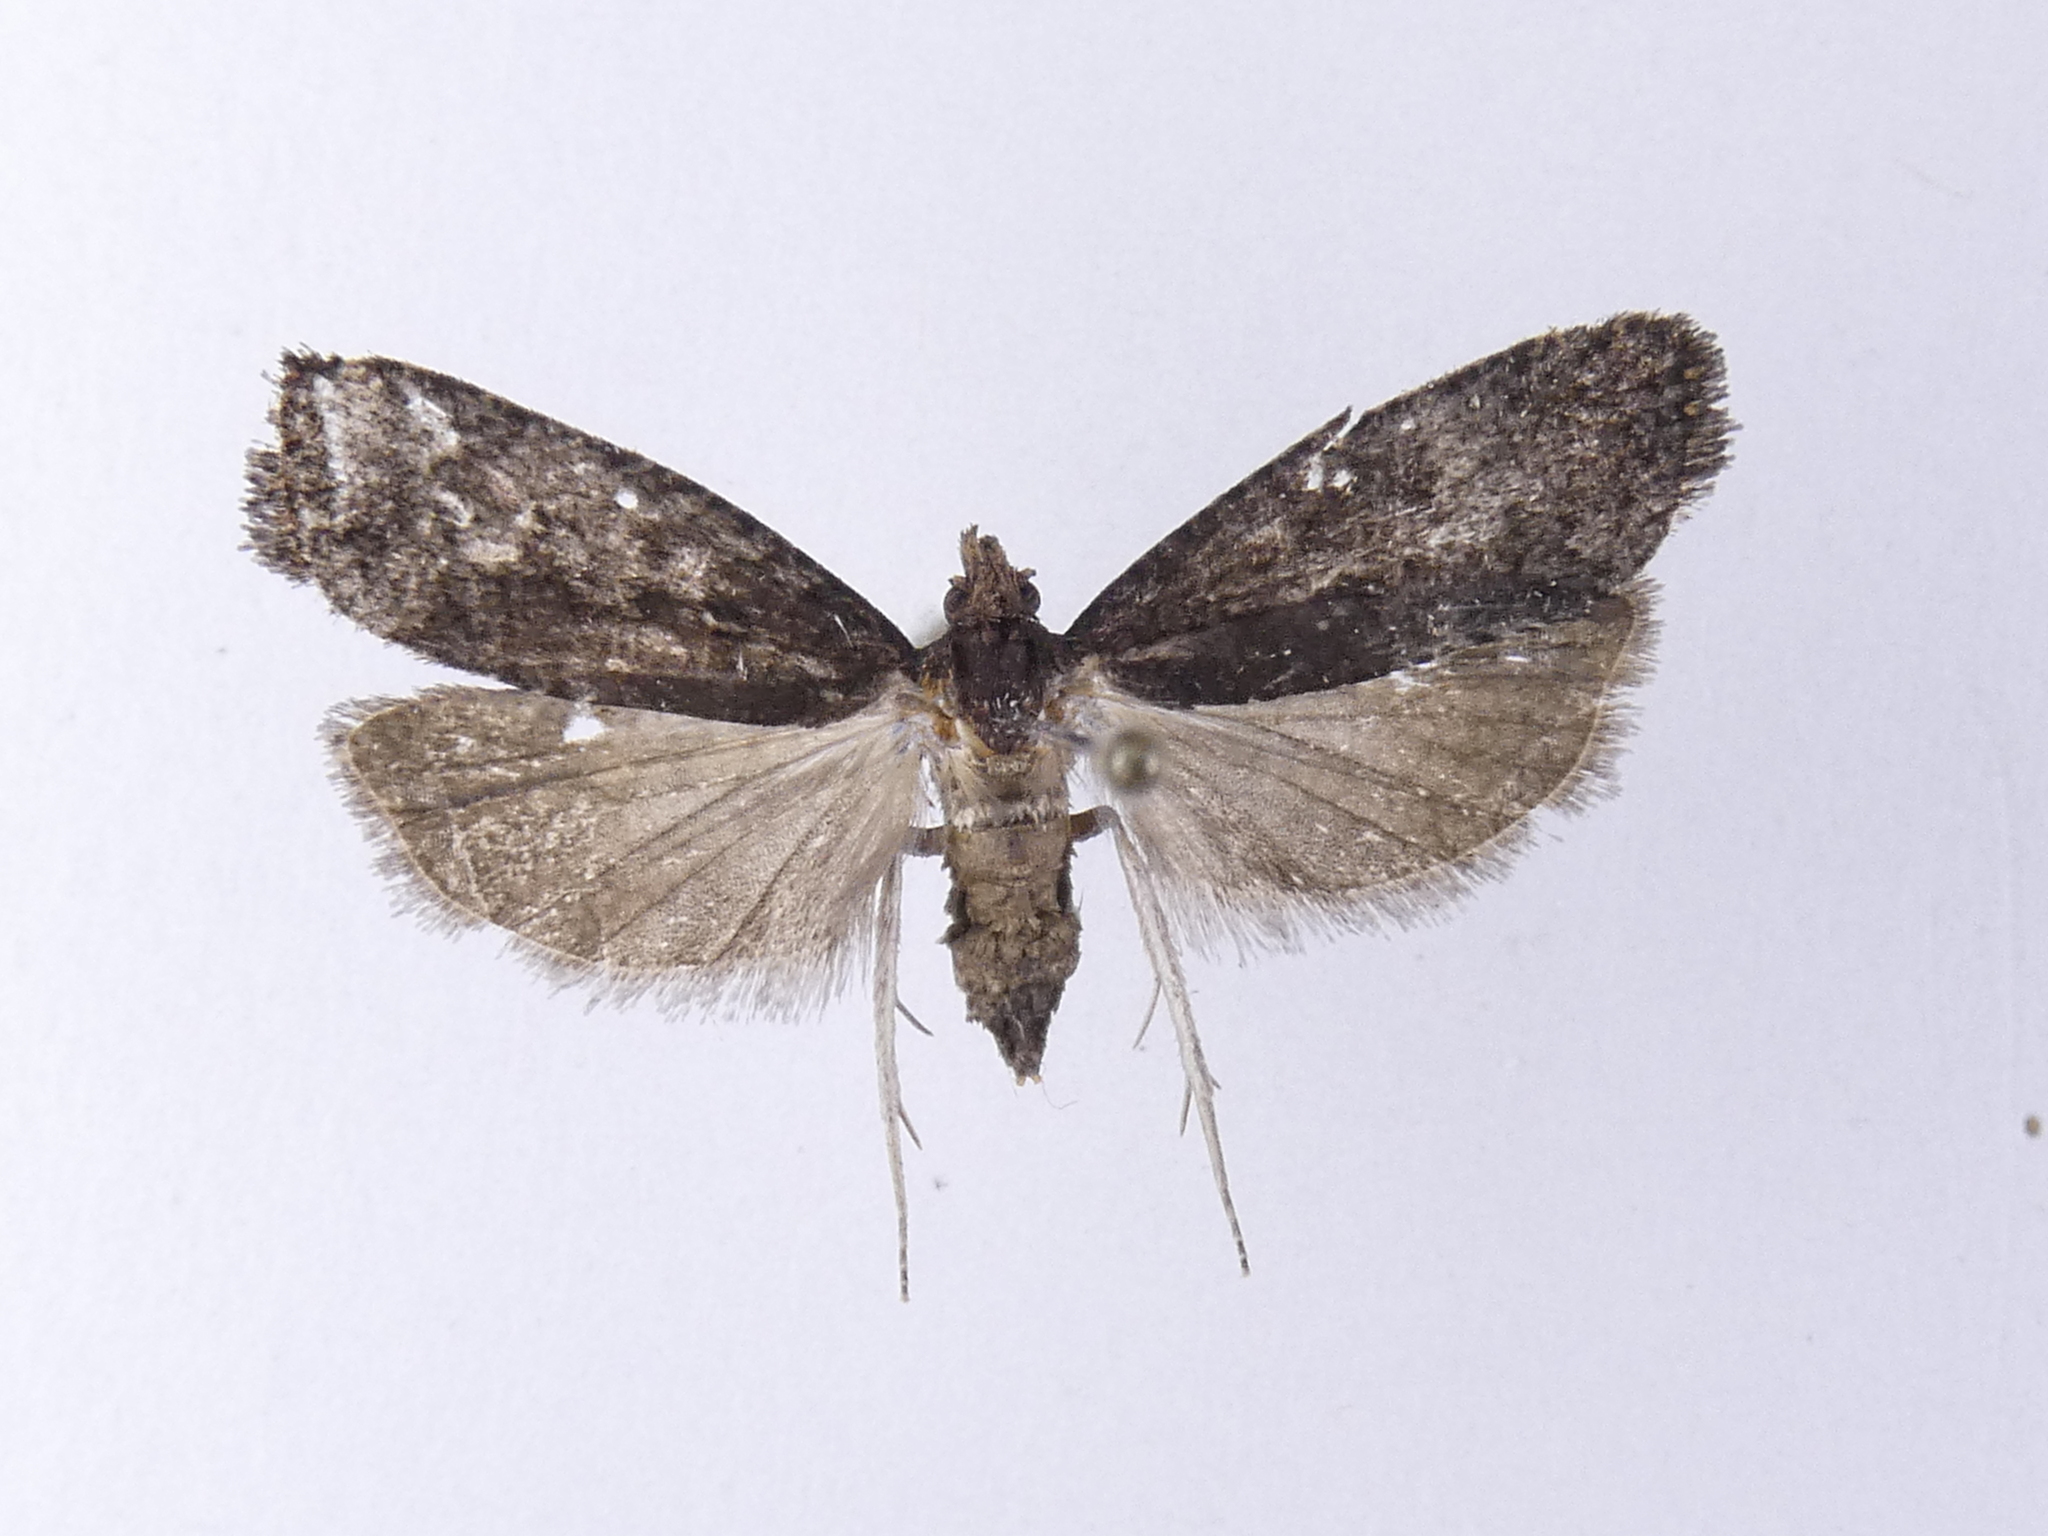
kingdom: Animalia
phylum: Arthropoda
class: Insecta
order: Lepidoptera
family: Tortricidae
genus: Cryptaspasma
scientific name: Cryptaspasma querula
